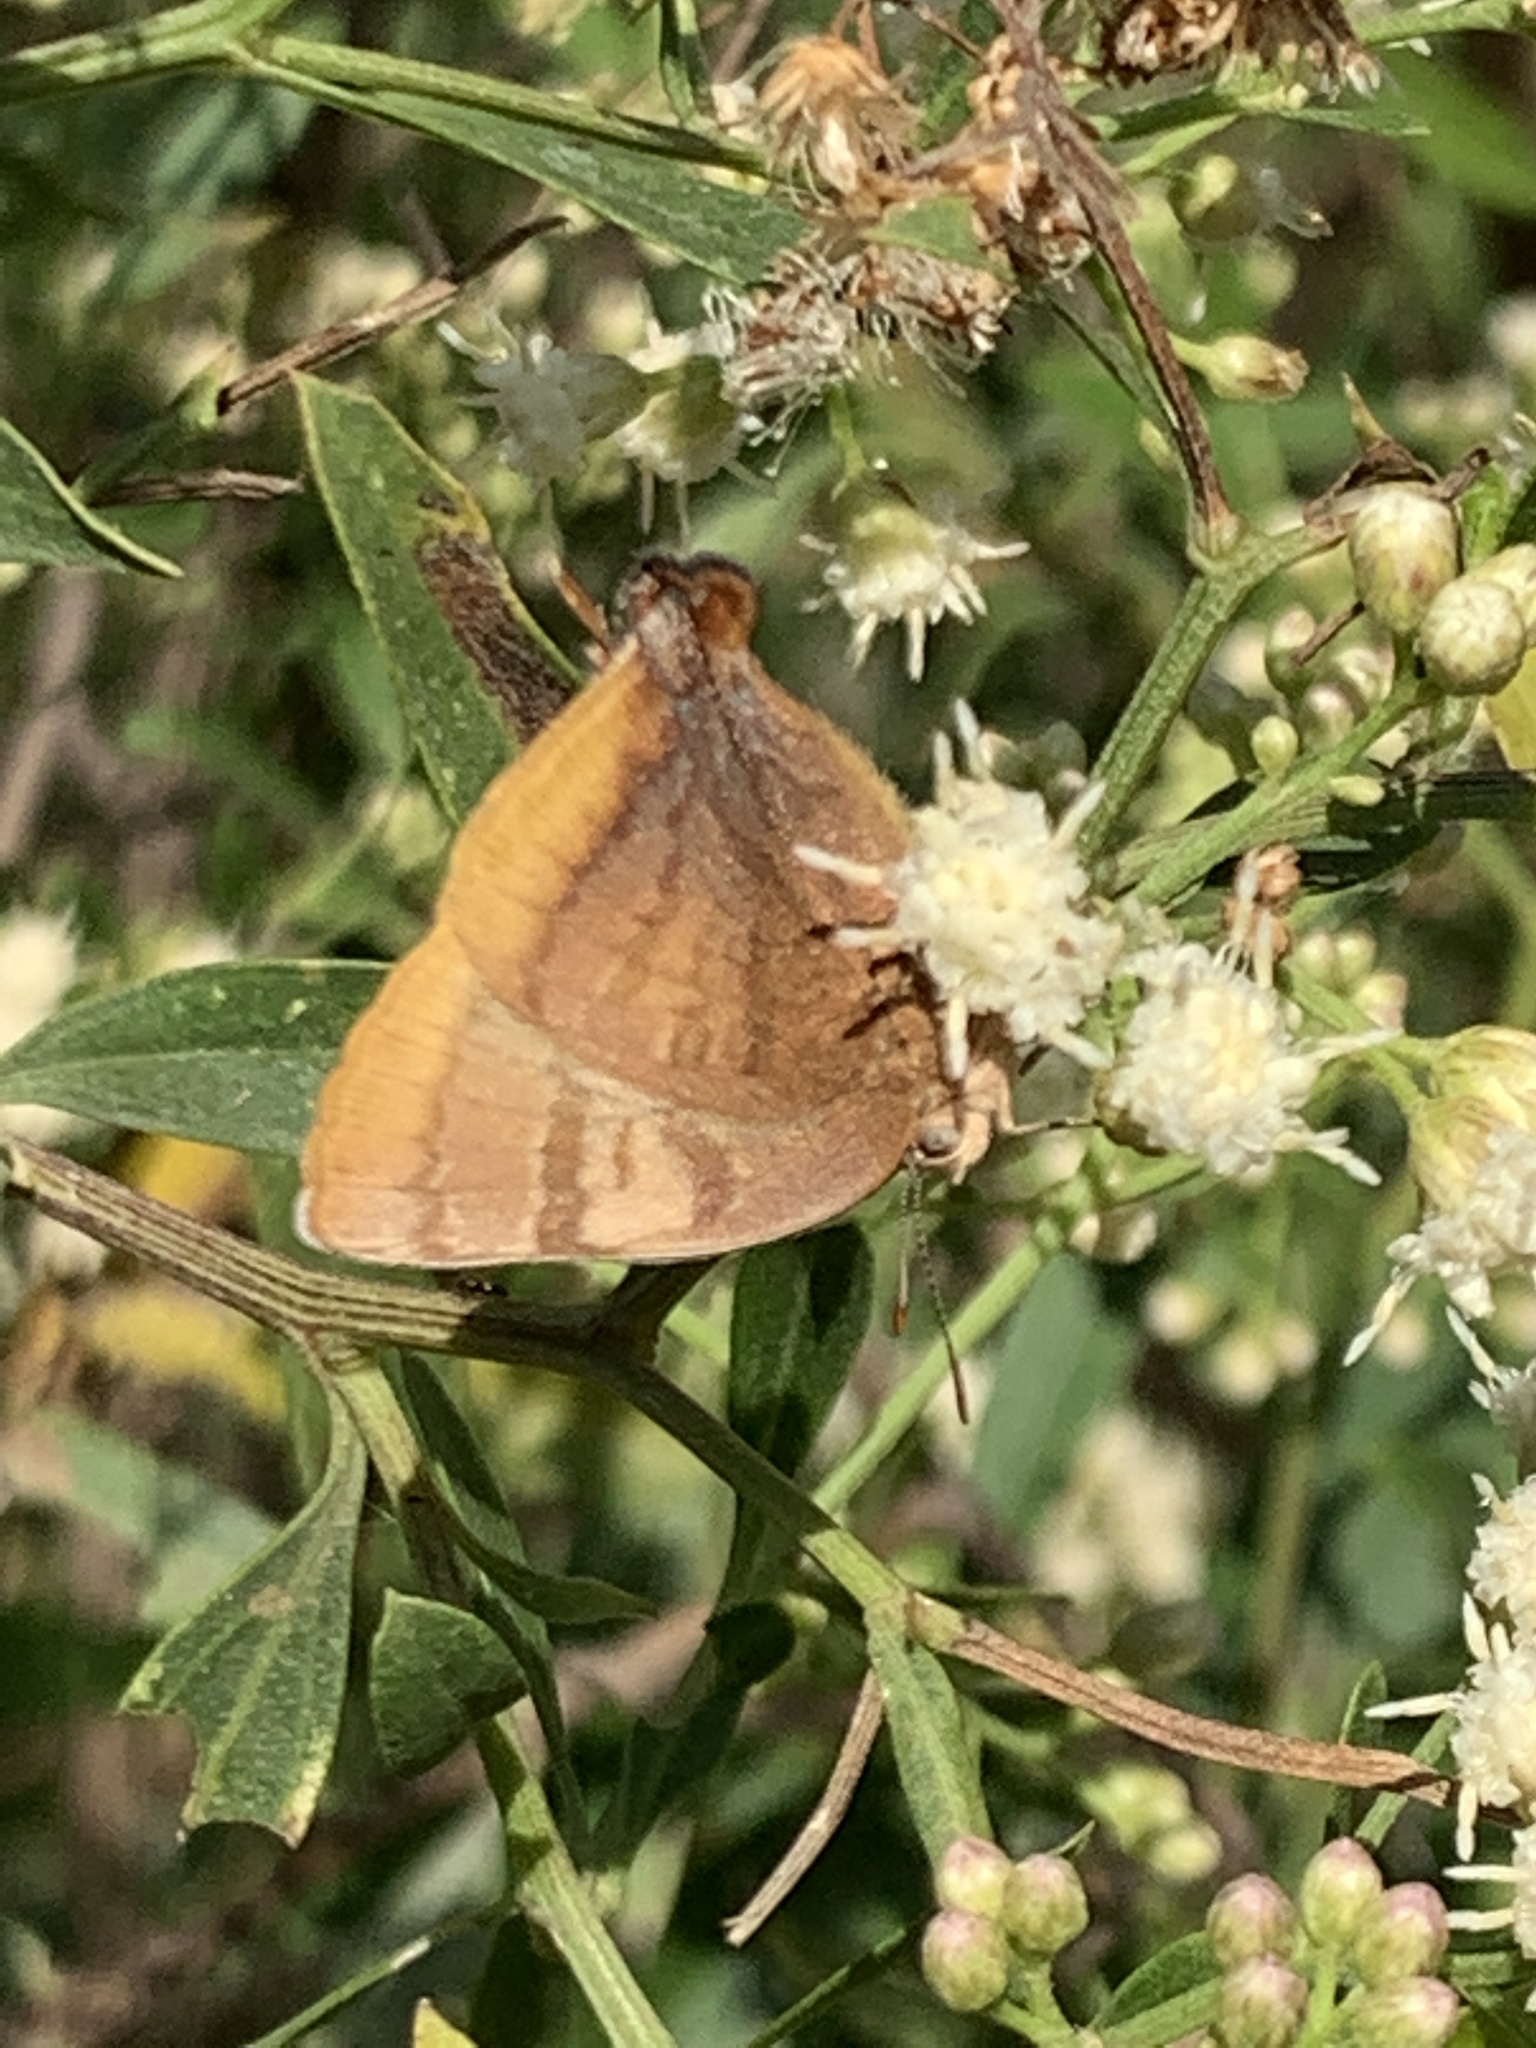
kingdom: Animalia
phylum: Arthropoda
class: Insecta
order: Lepidoptera
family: Lycaenidae
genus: Thecla
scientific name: Thecla marius
